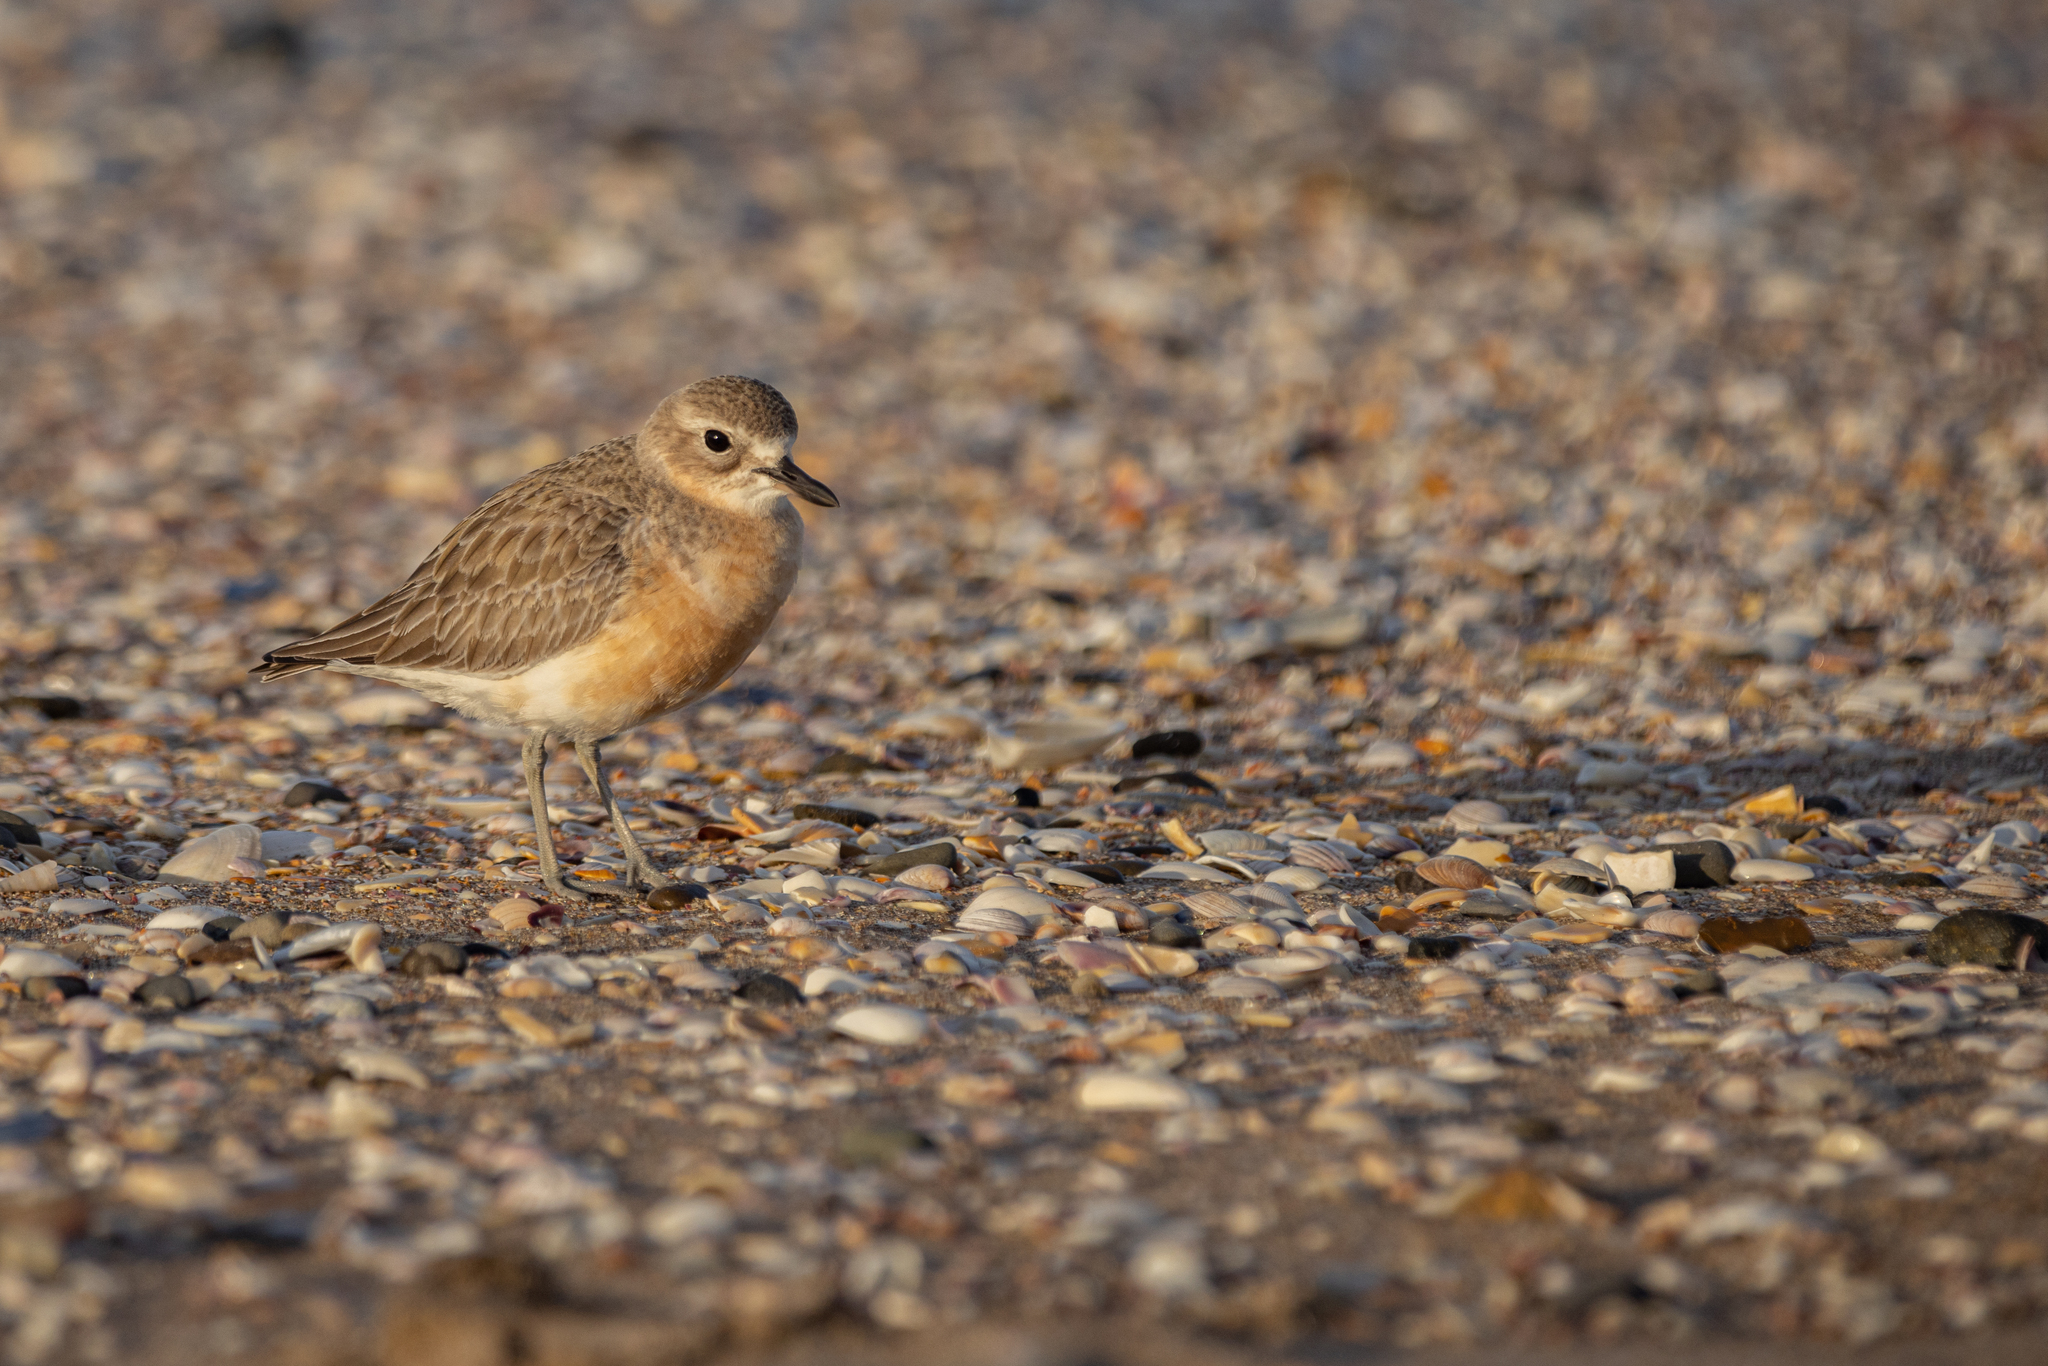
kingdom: Animalia
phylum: Chordata
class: Aves
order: Charadriiformes
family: Charadriidae
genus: Anarhynchus
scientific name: Anarhynchus
